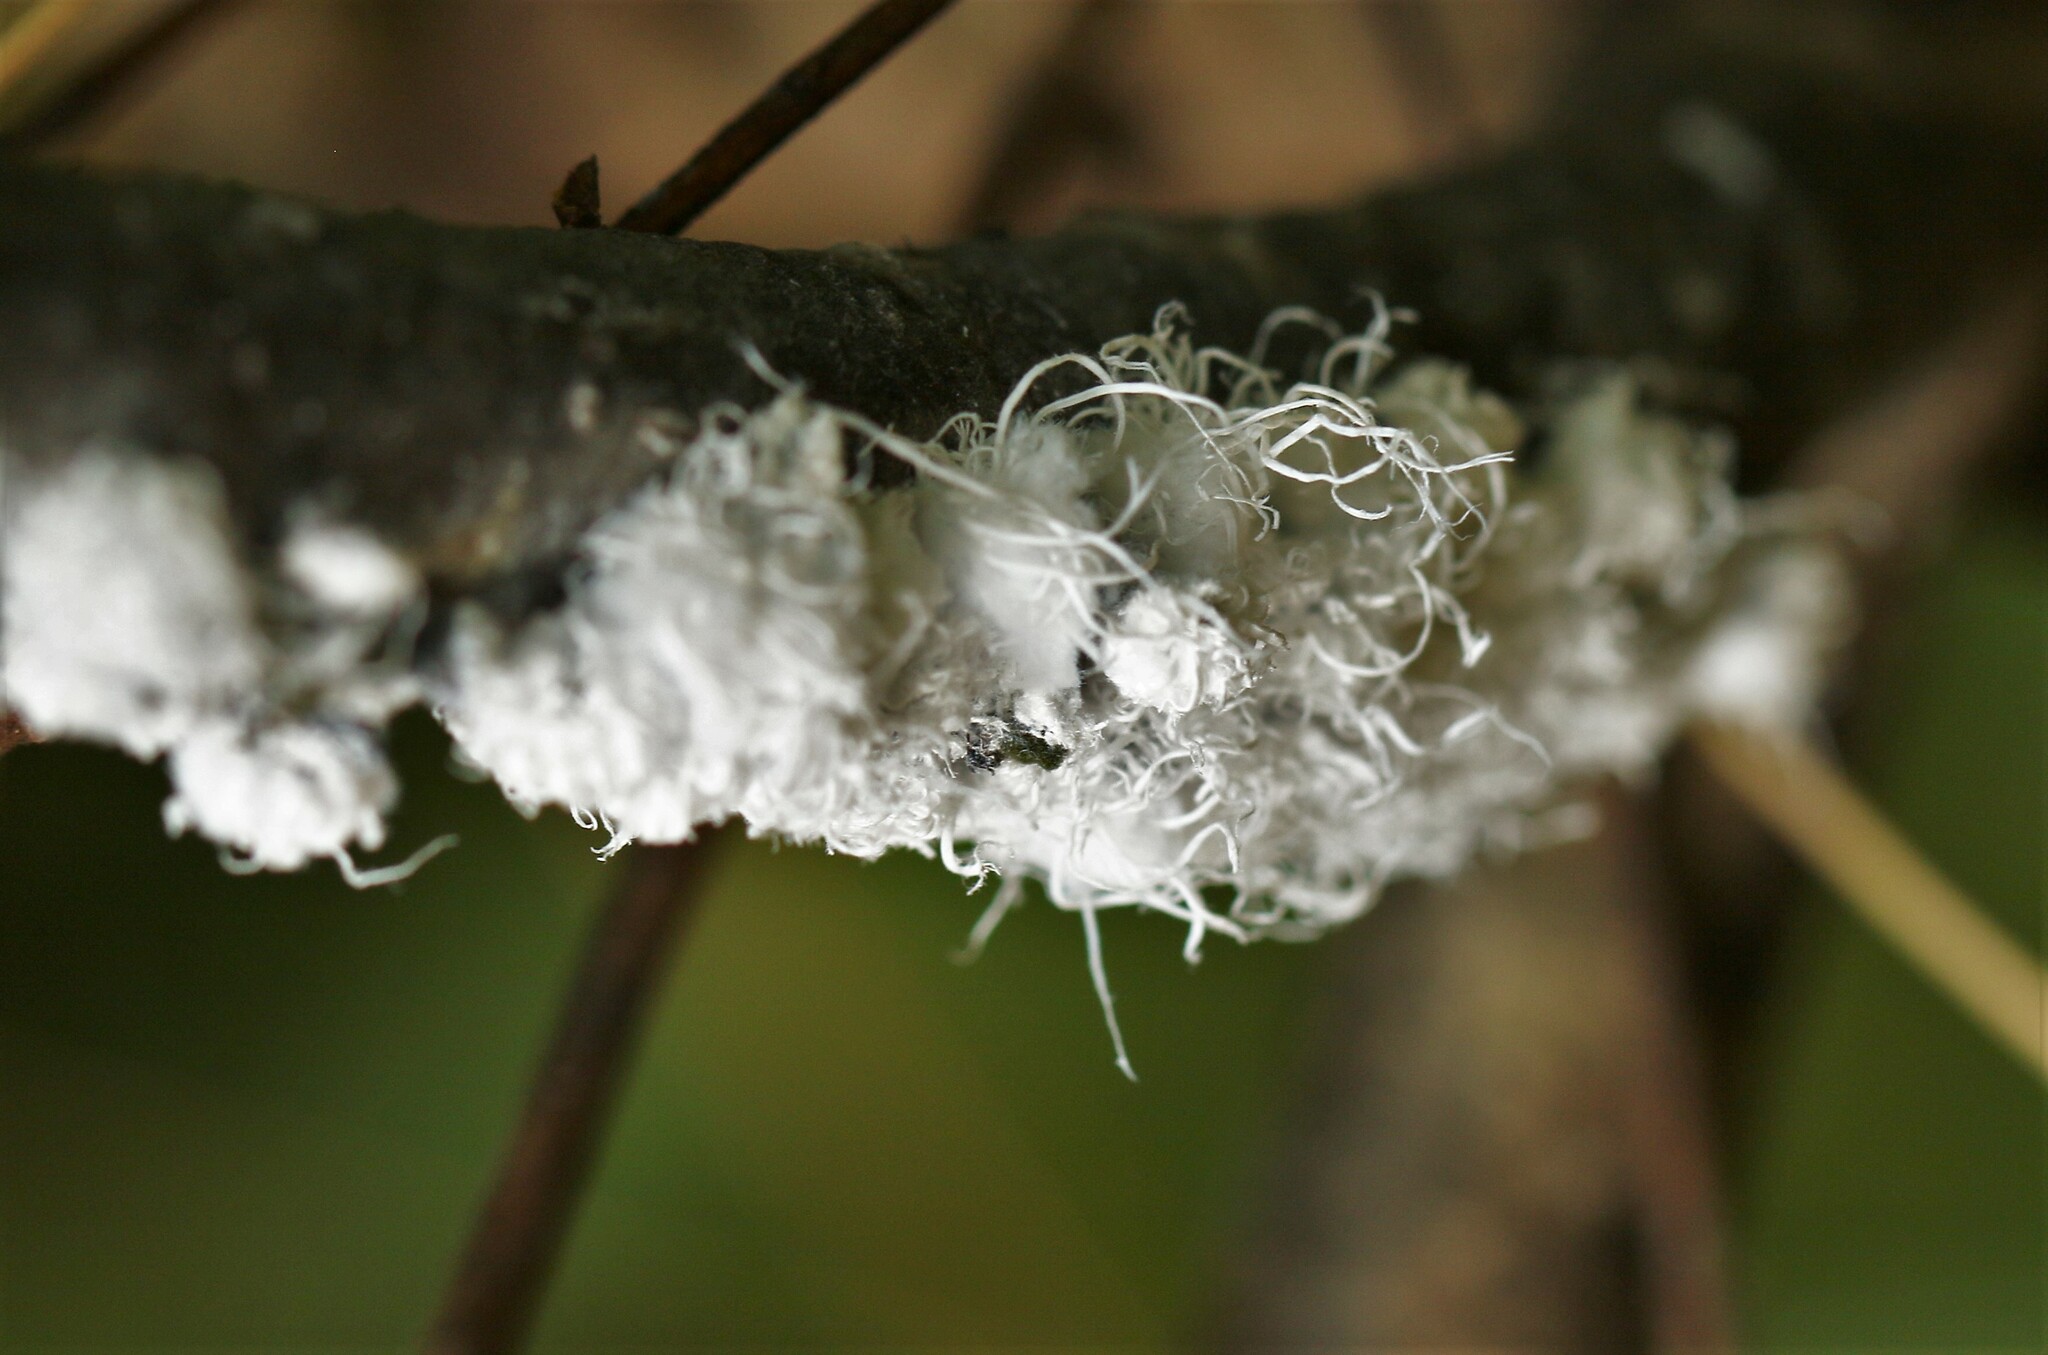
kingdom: Animalia
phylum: Arthropoda
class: Insecta
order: Hemiptera
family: Aphididae
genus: Prociphilus
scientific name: Prociphilus tessellatus
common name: Woolly alder aphid
